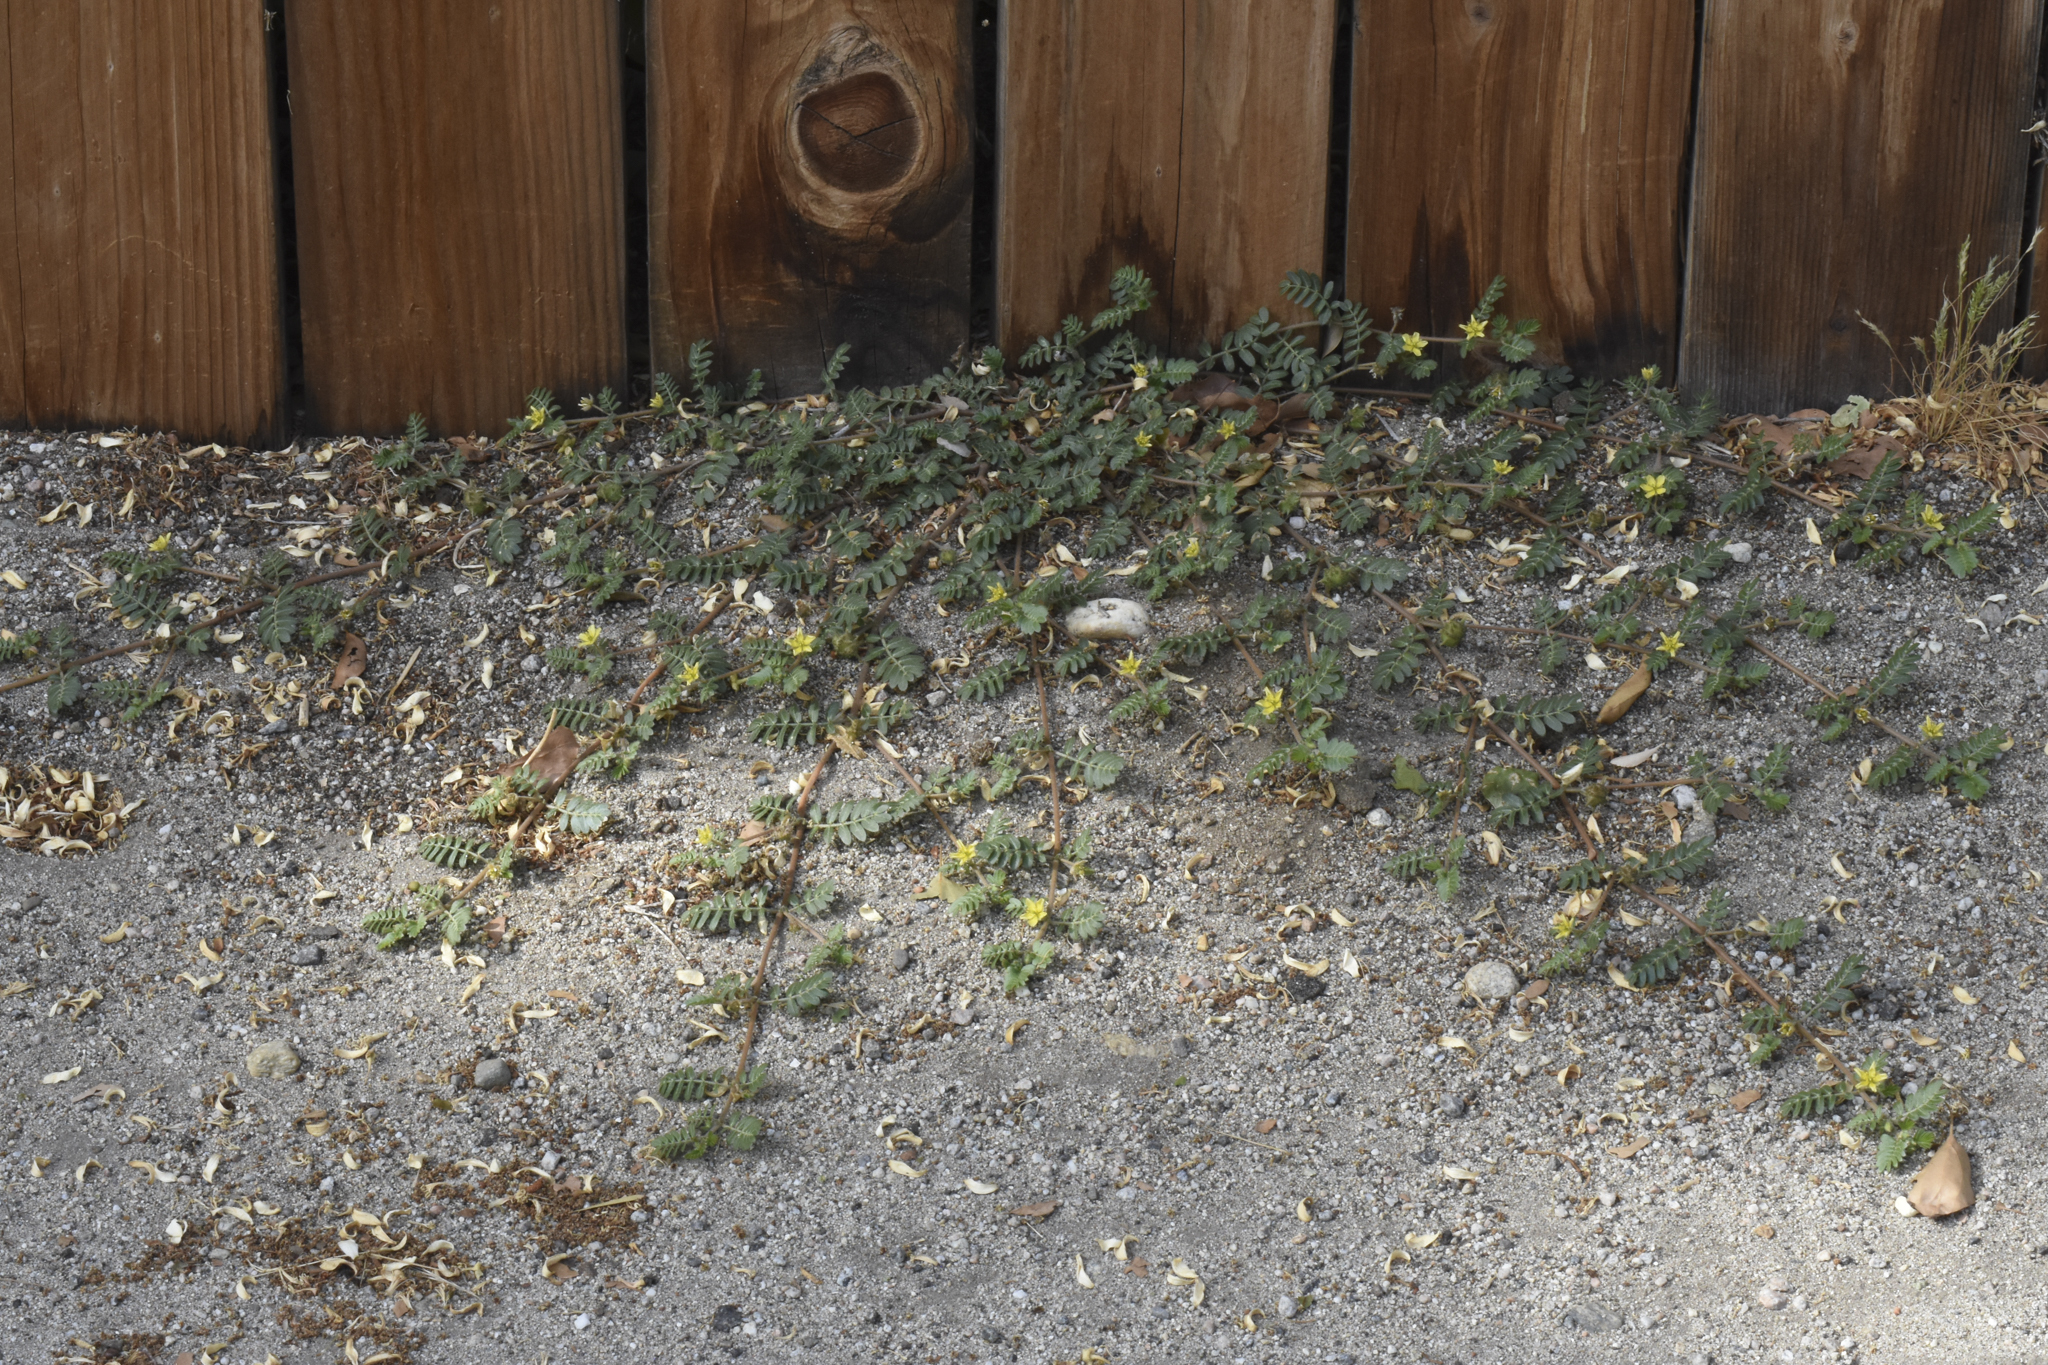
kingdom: Plantae
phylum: Tracheophyta
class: Magnoliopsida
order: Zygophyllales
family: Zygophyllaceae
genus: Tribulus
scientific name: Tribulus terrestris
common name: Puncturevine
